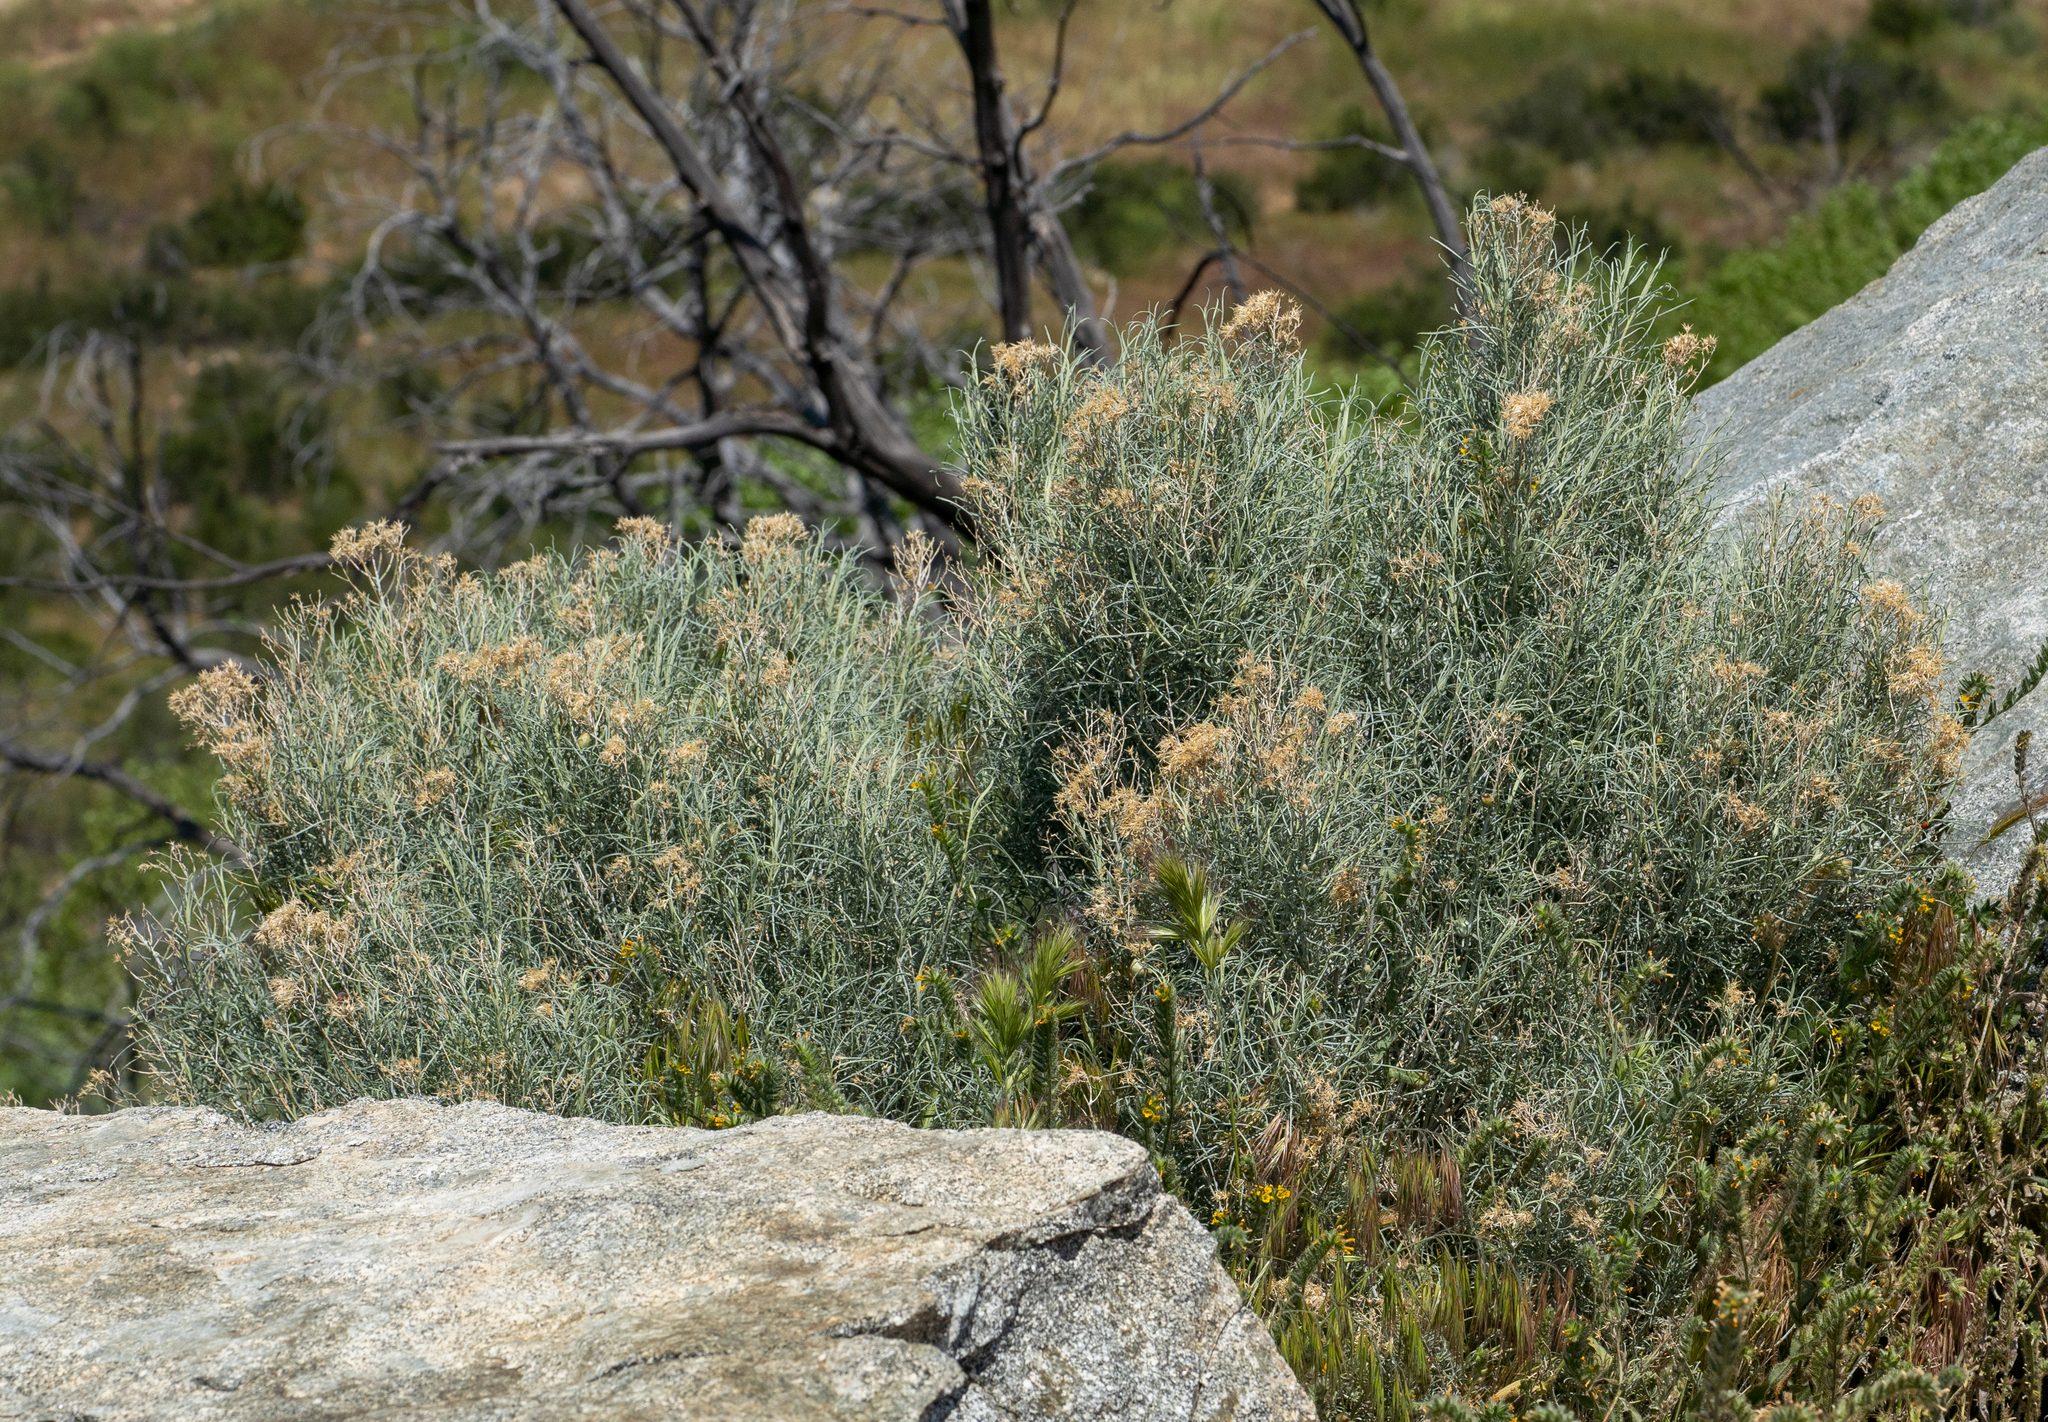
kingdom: Plantae
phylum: Tracheophyta
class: Magnoliopsida
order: Asterales
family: Asteraceae
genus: Ericameria
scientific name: Ericameria nauseosa
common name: Rubber rabbitbrush
